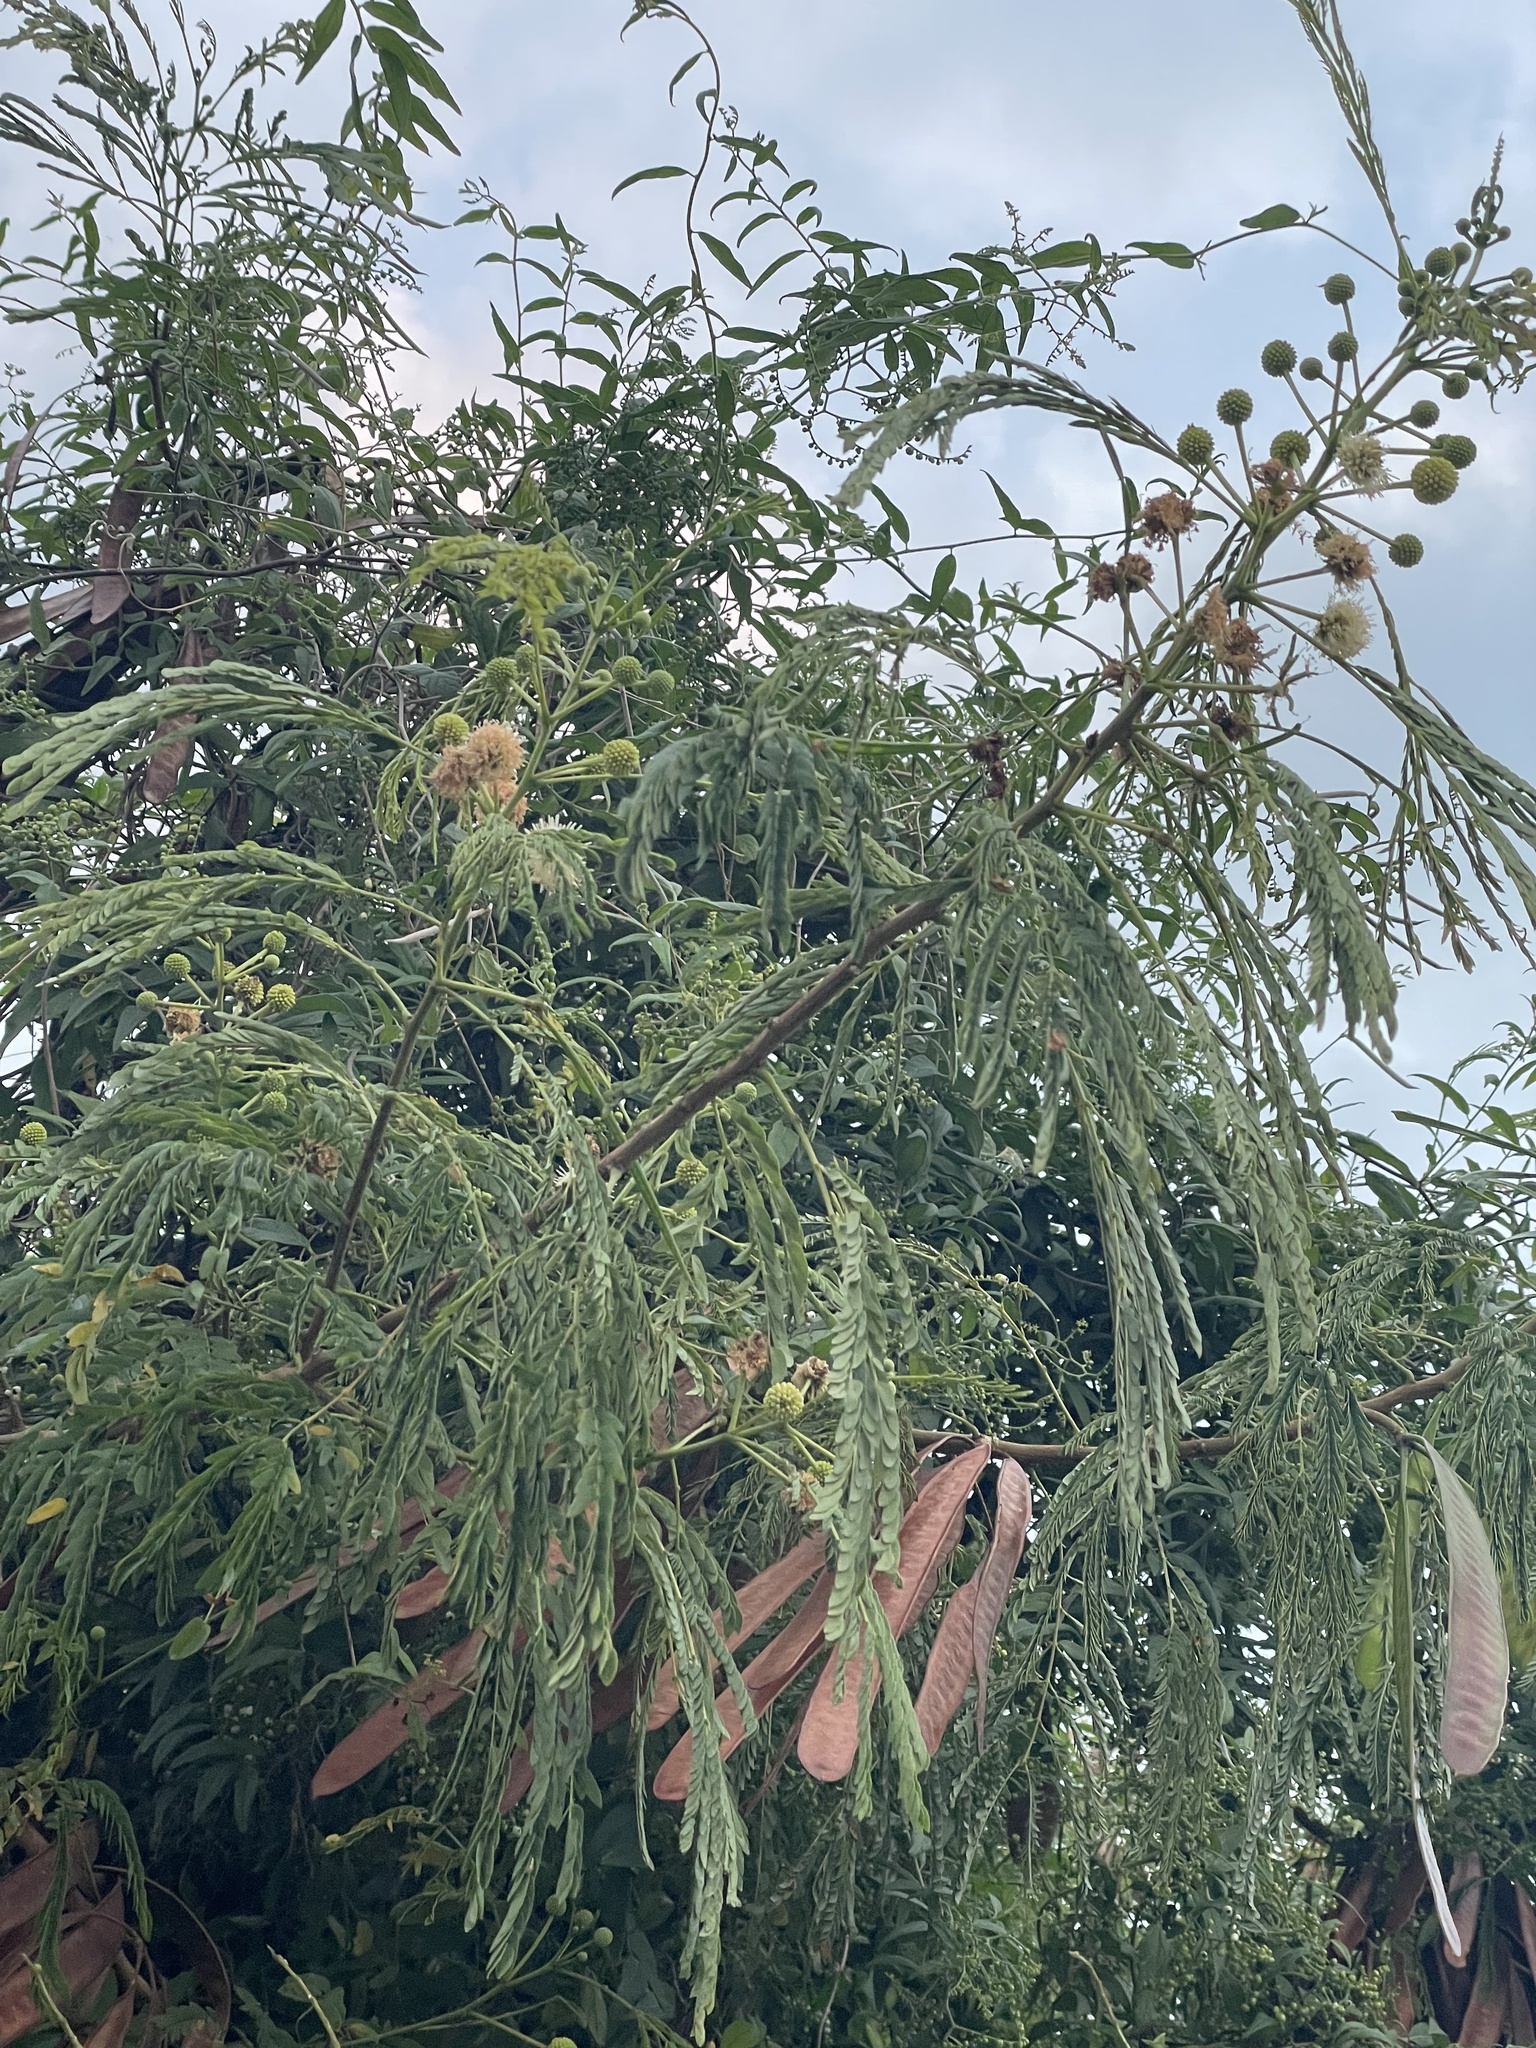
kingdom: Plantae
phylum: Tracheophyta
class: Magnoliopsida
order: Fabales
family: Fabaceae
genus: Leucaena
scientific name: Leucaena leucocephala
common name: White leadtree
